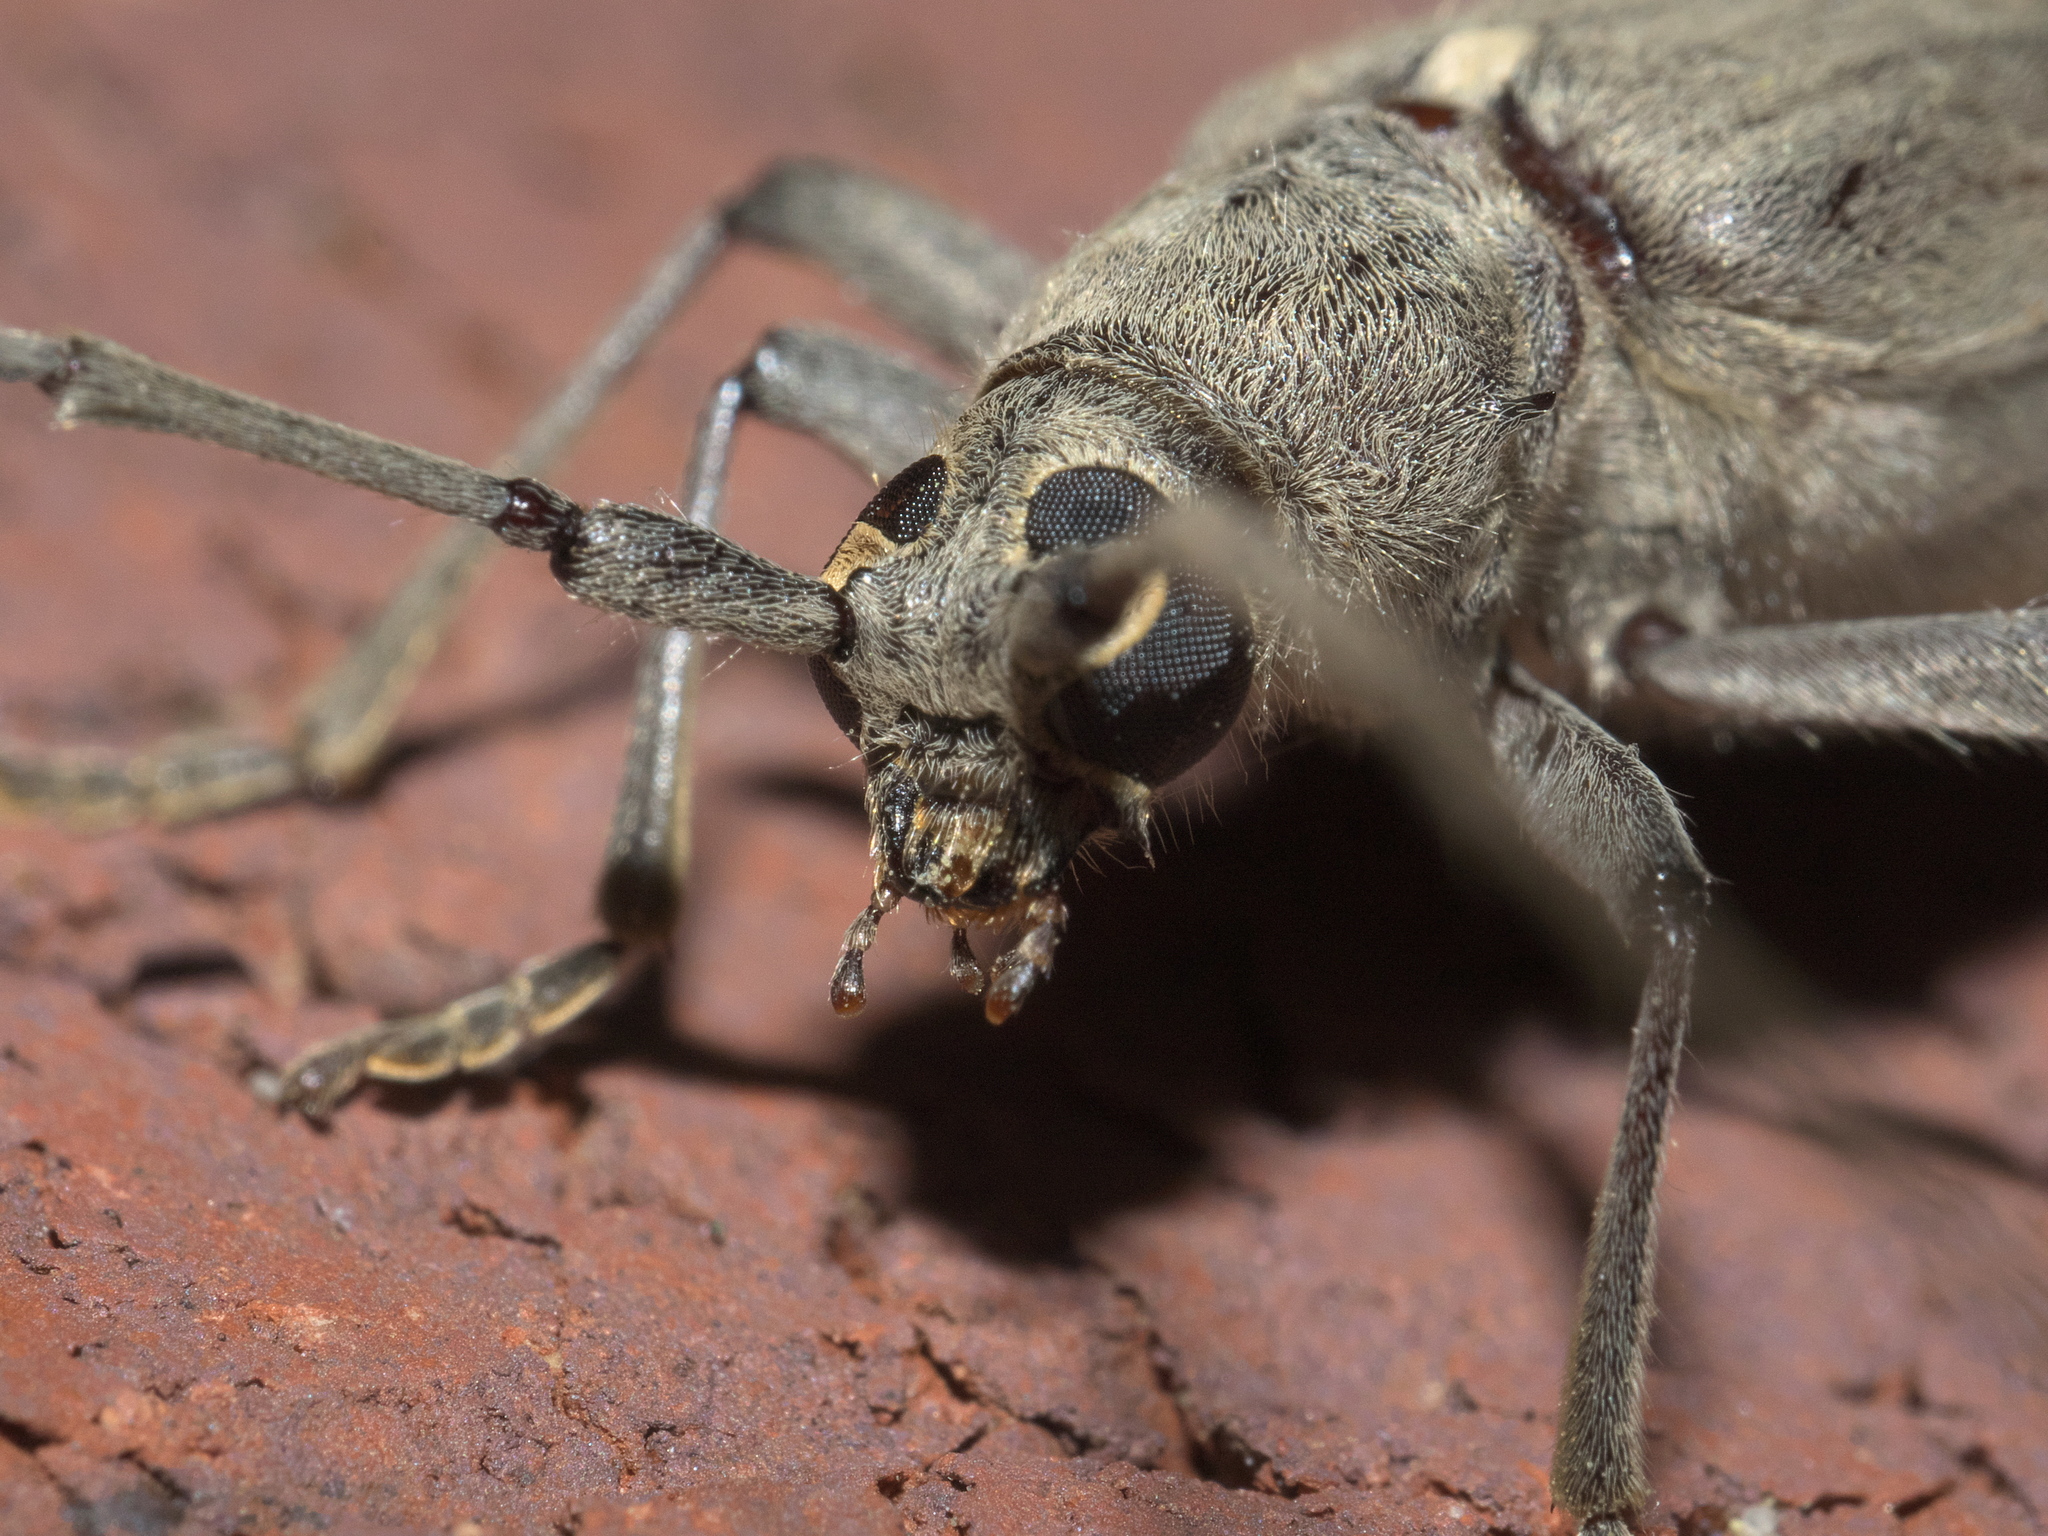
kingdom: Animalia
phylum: Arthropoda
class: Insecta
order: Coleoptera
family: Cerambycidae
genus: Knulliana
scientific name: Knulliana cincta
